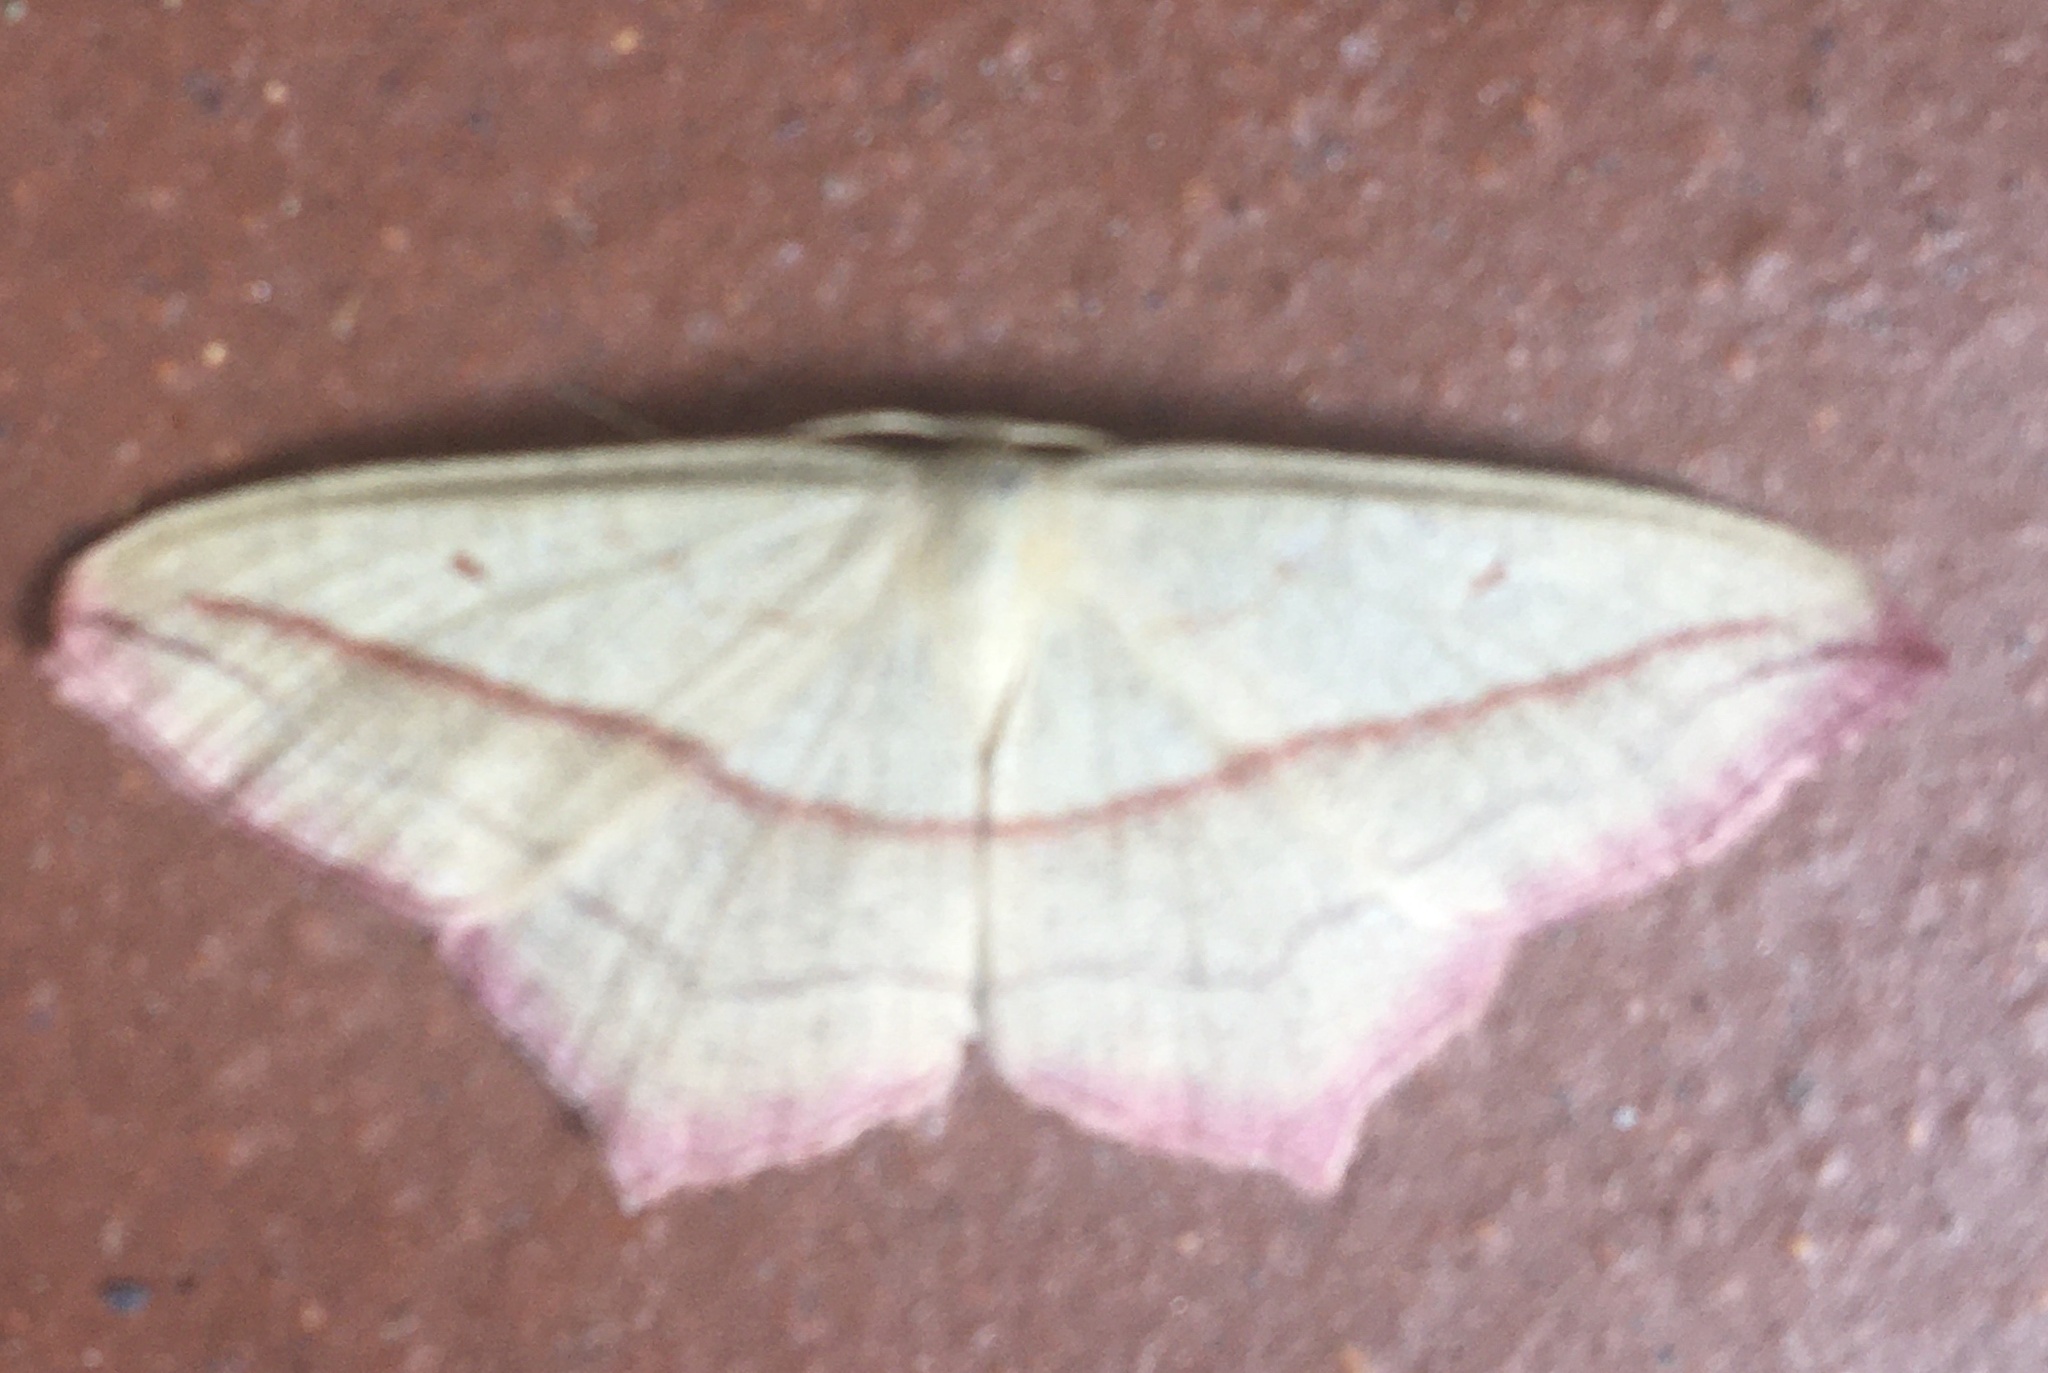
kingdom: Animalia
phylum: Arthropoda
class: Insecta
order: Lepidoptera
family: Geometridae
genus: Timandra
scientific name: Timandra comae
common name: Blood-vein
